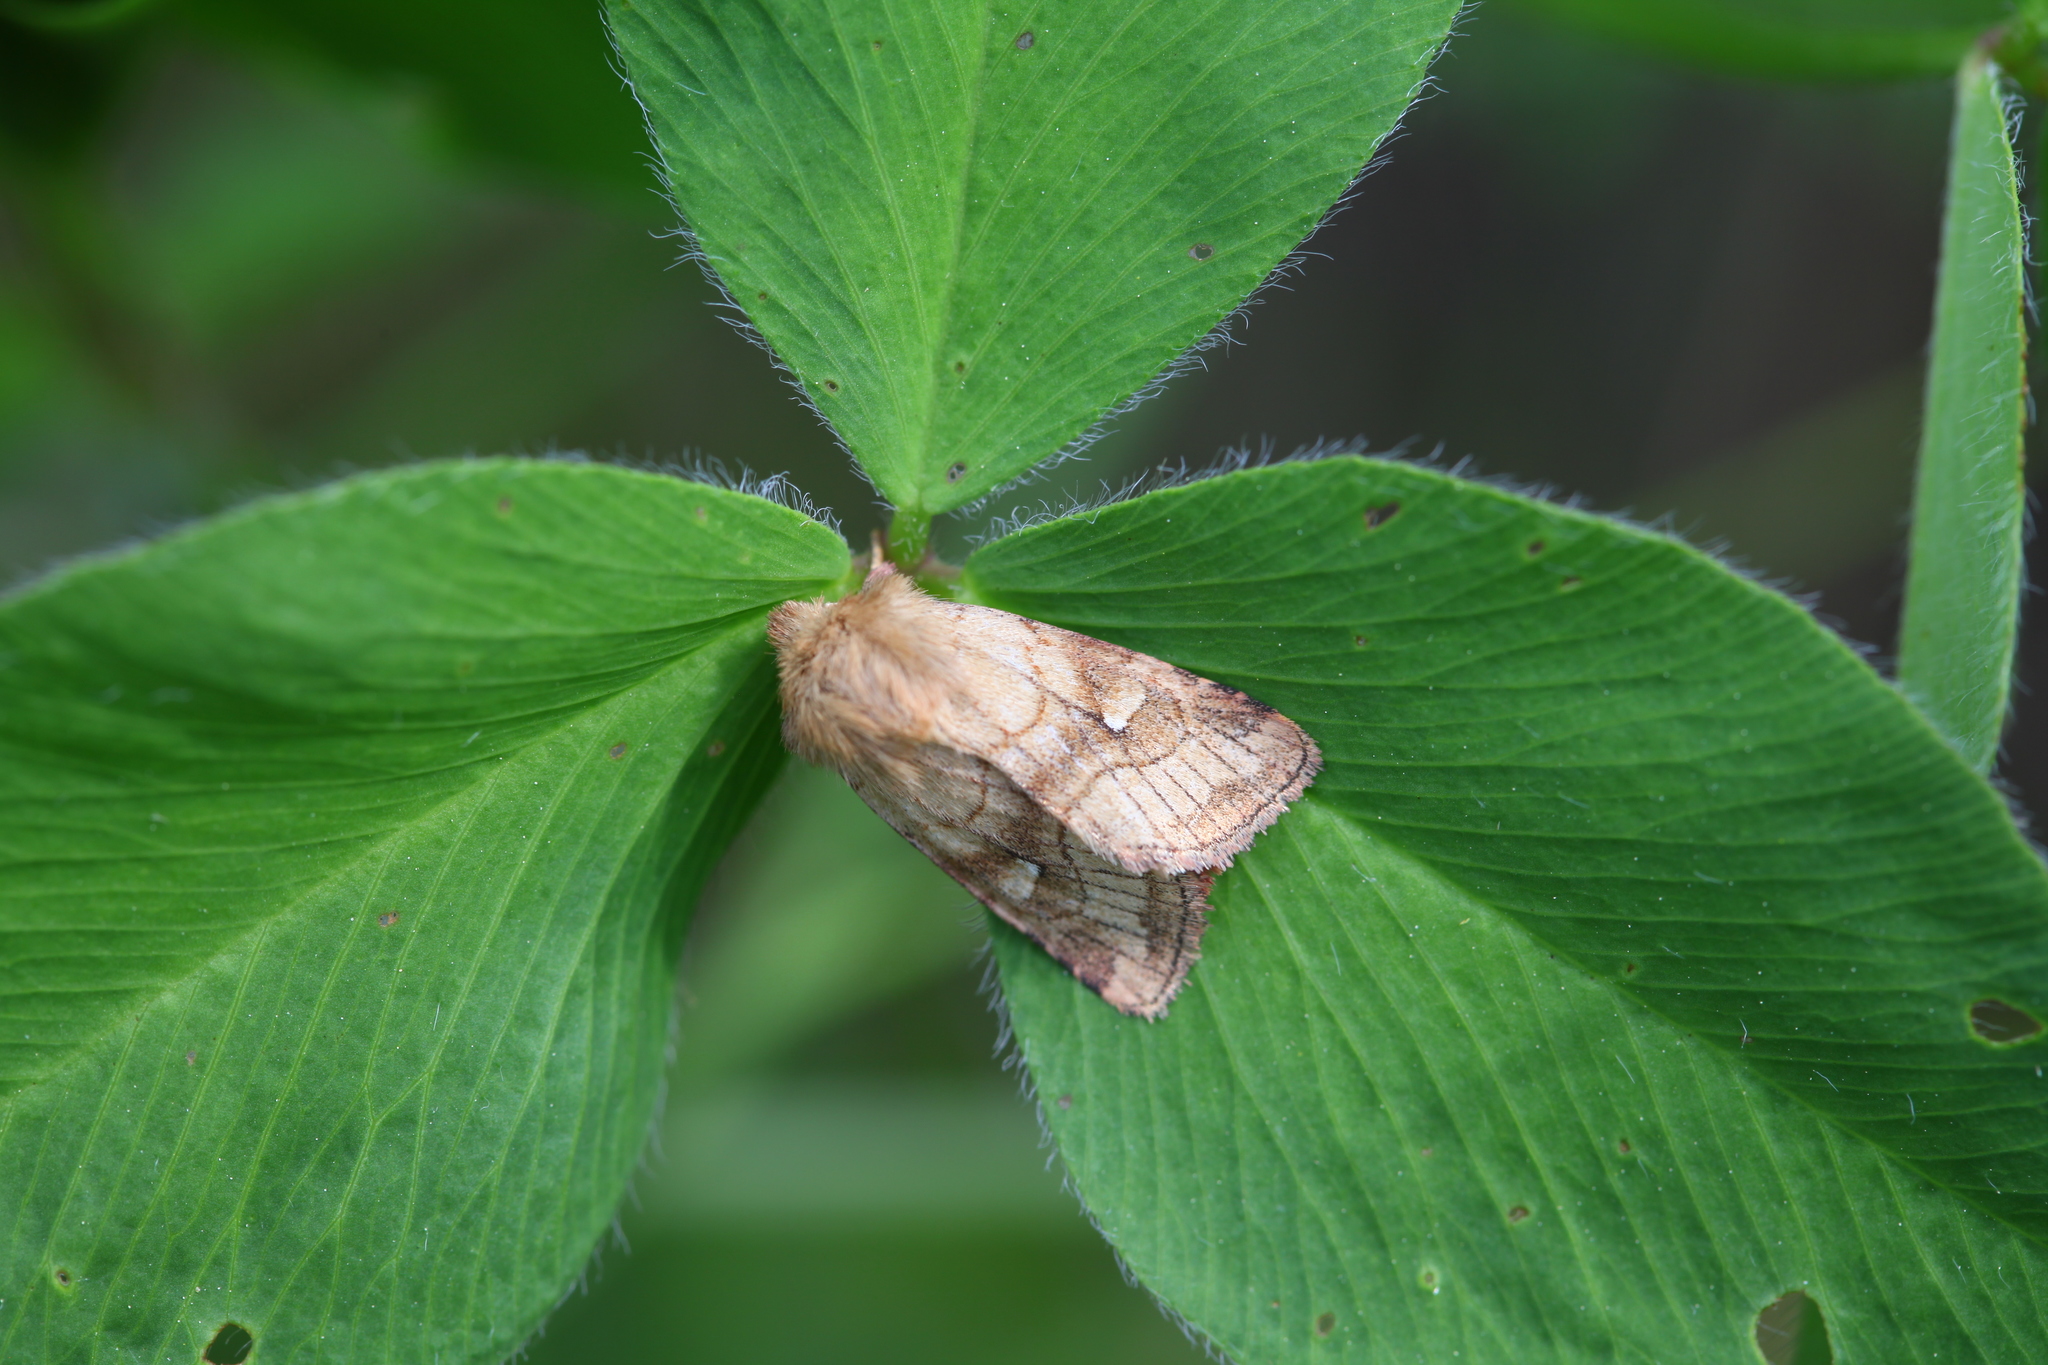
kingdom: Animalia
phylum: Arthropoda
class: Insecta
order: Lepidoptera
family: Noctuidae
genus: Lasionycta
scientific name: Lasionycta Eriopygodes imbecillus
